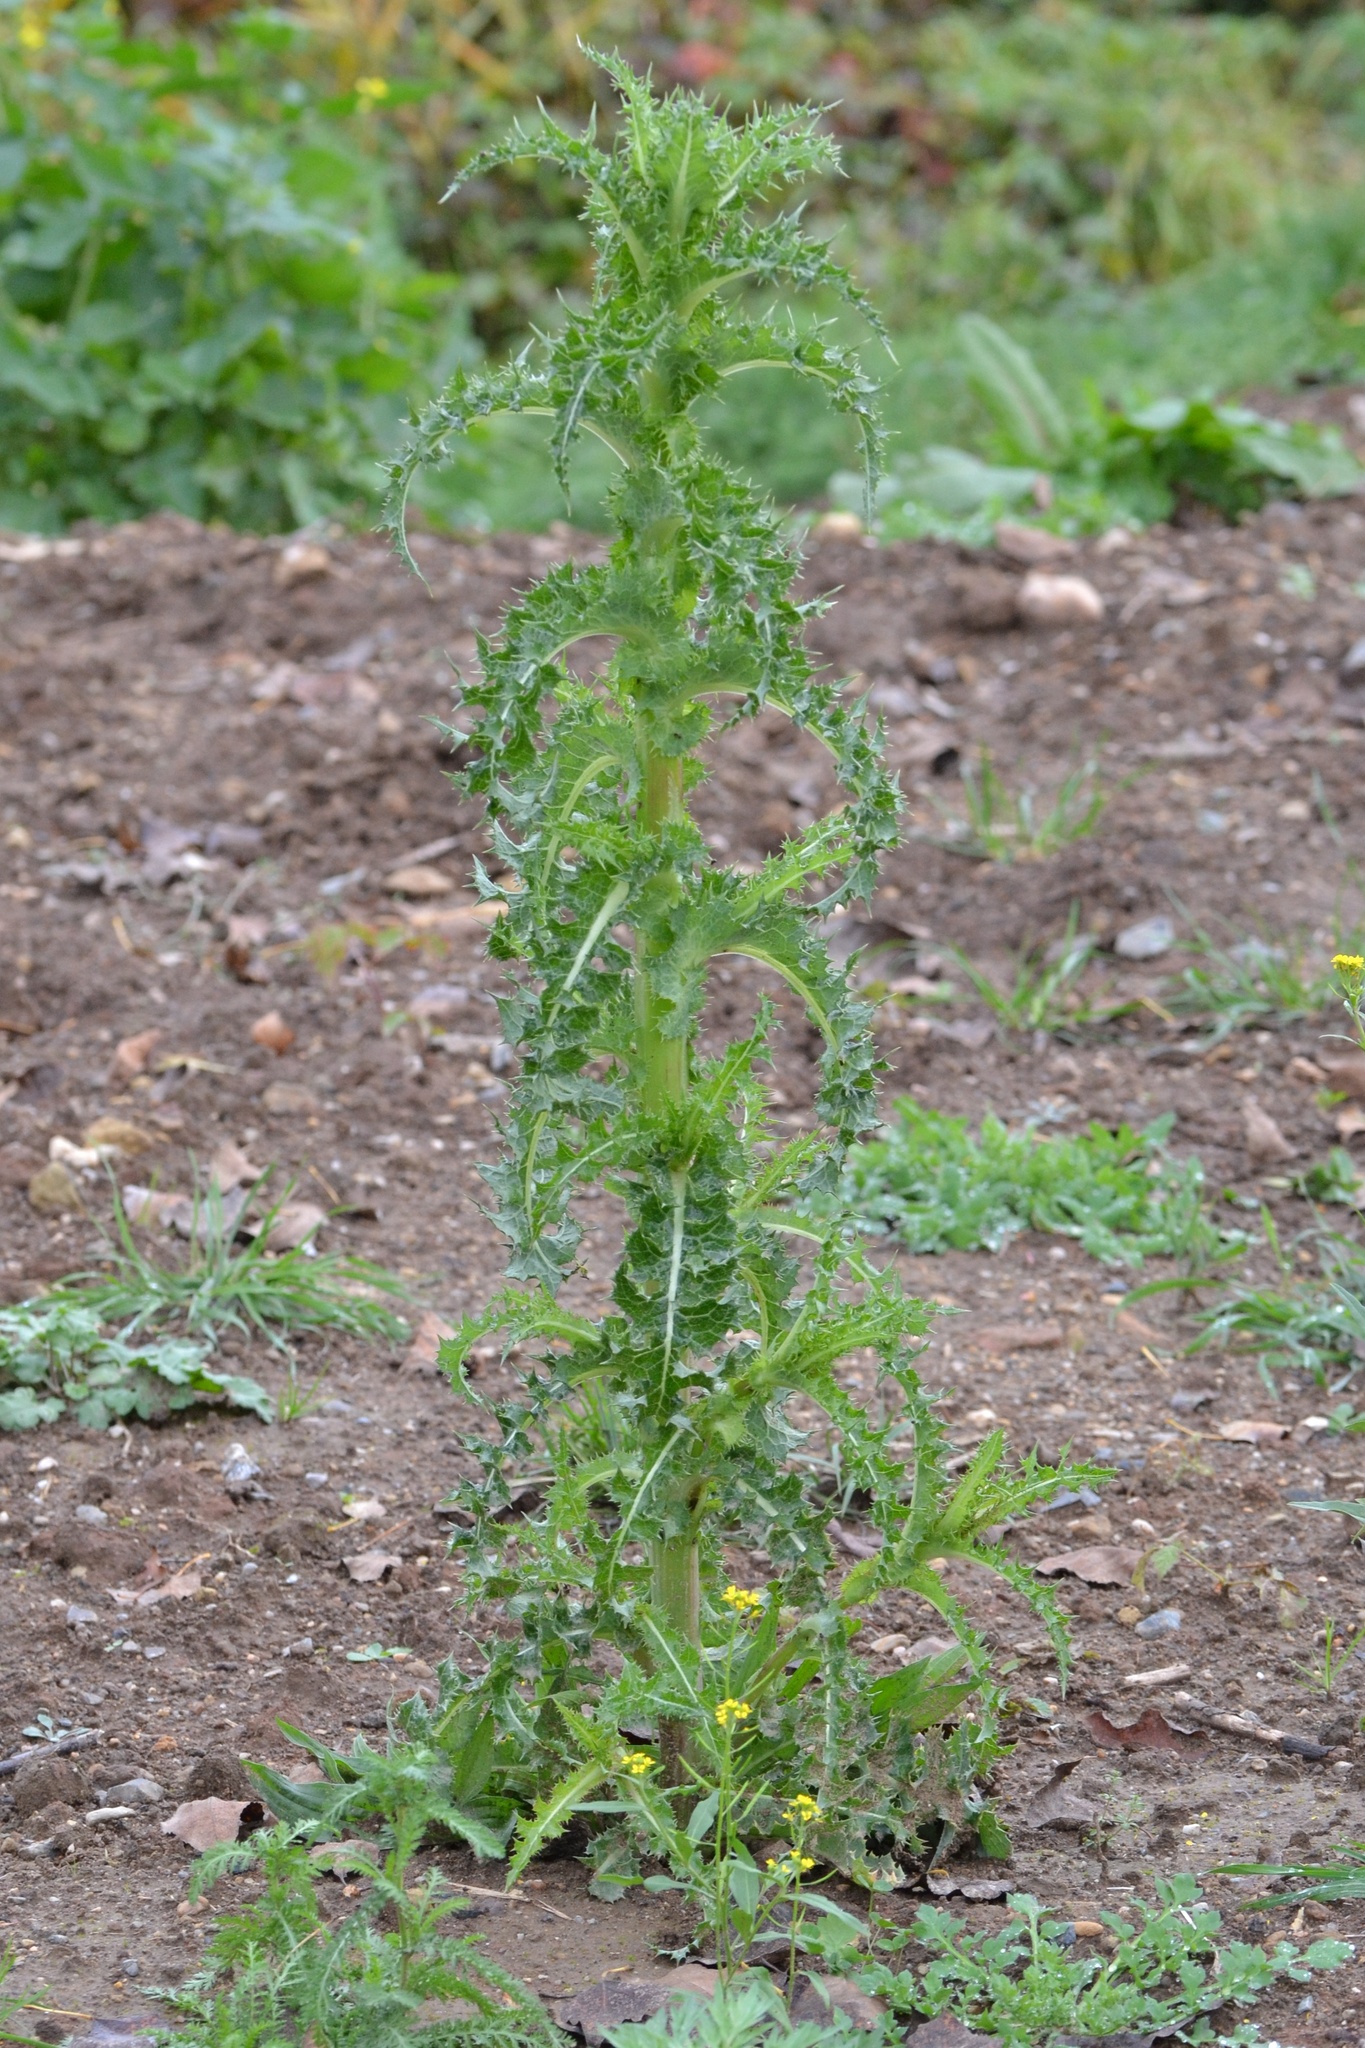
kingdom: Plantae
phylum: Tracheophyta
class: Magnoliopsida
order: Asterales
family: Asteraceae
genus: Sonchus
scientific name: Sonchus asper
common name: Prickly sow-thistle
